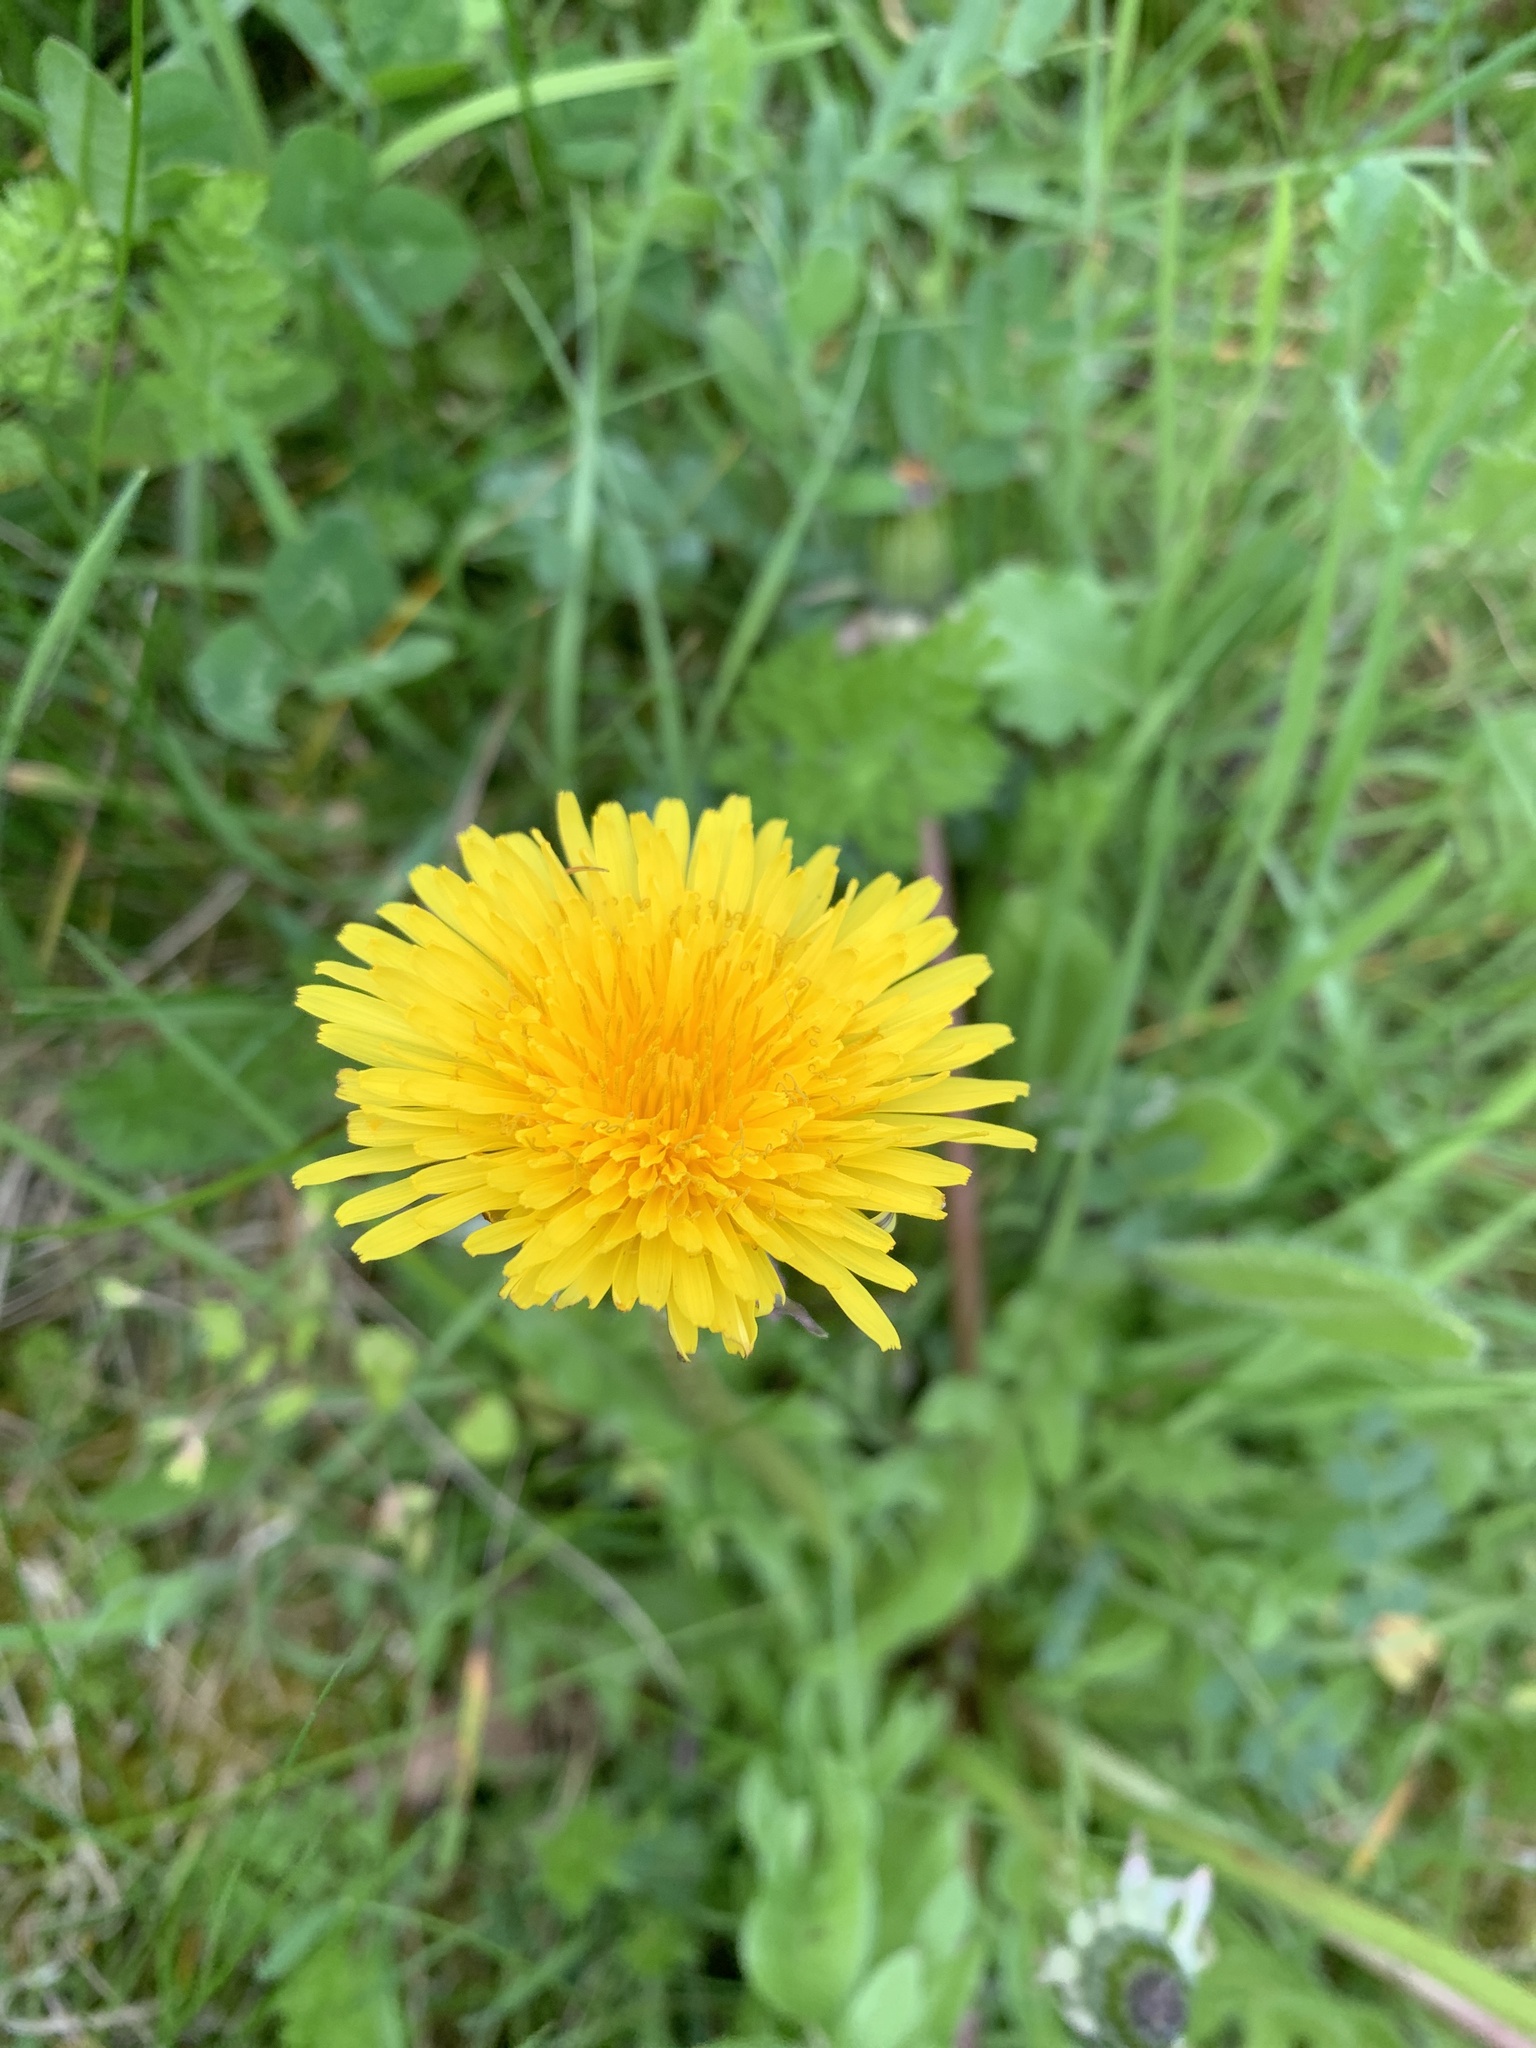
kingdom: Plantae
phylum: Tracheophyta
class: Magnoliopsida
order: Asterales
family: Asteraceae
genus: Taraxacum
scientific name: Taraxacum officinale
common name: Common dandelion
